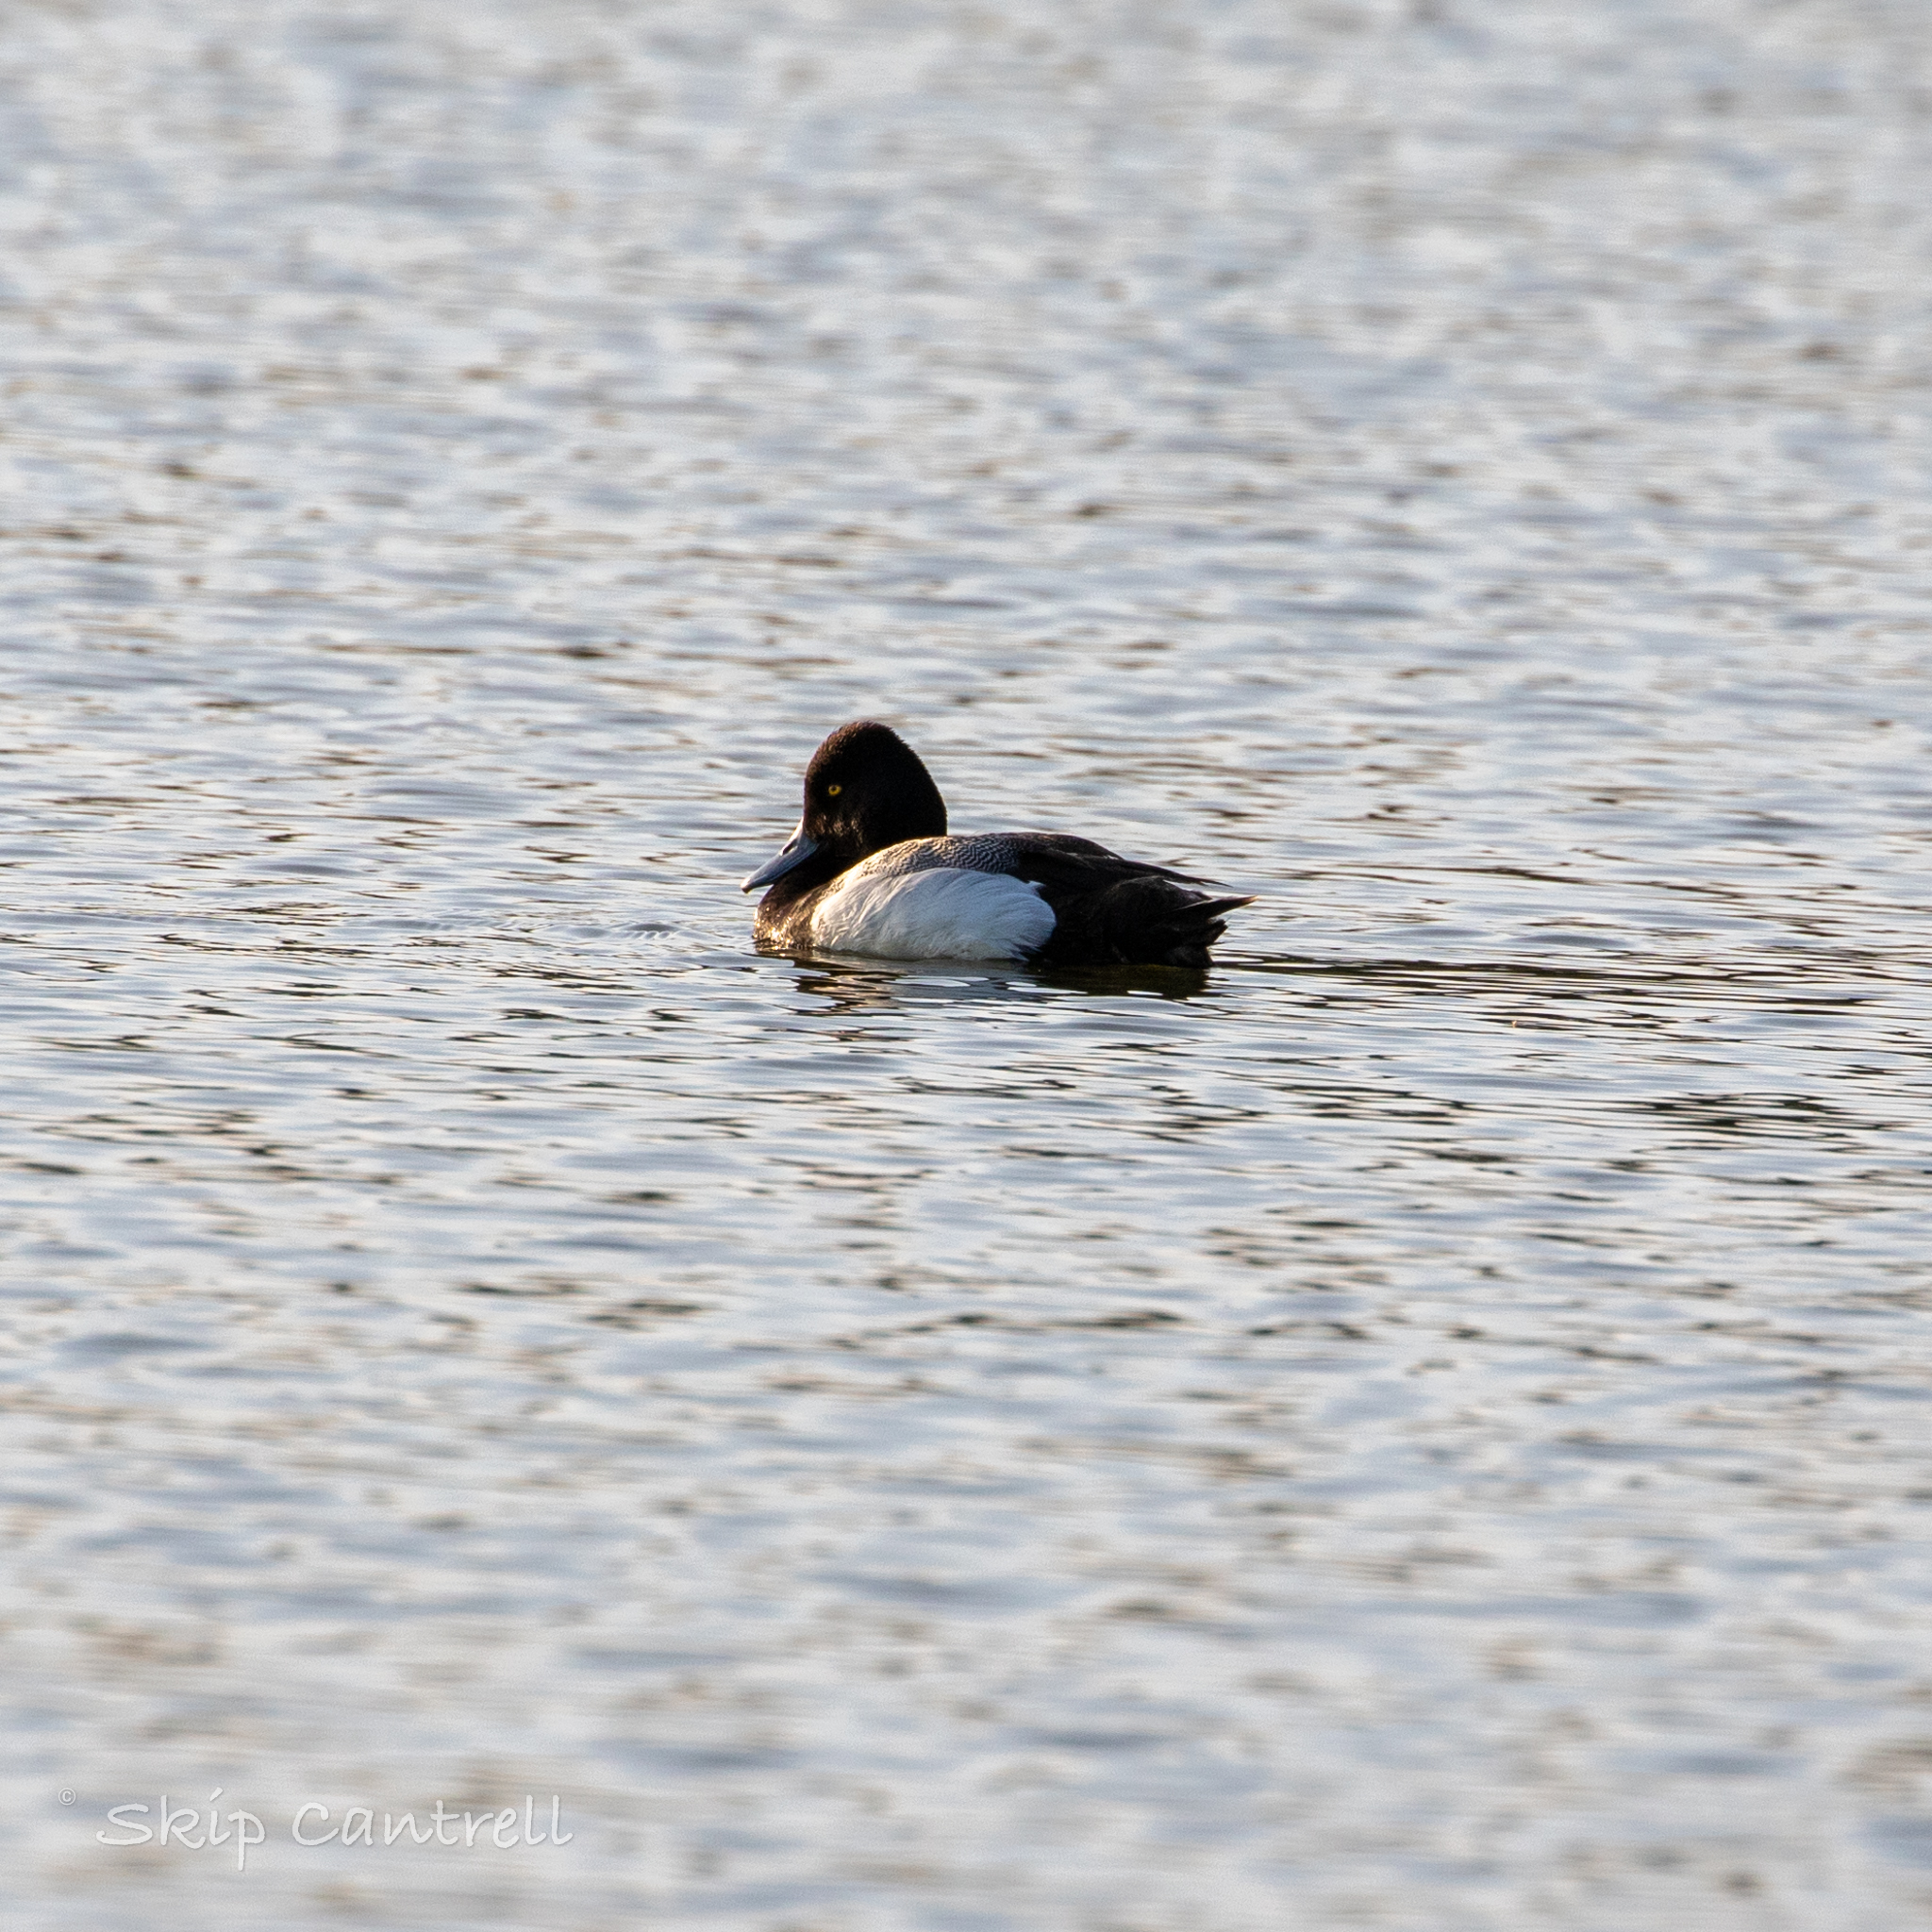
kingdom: Animalia
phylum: Chordata
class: Aves
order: Anseriformes
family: Anatidae
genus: Aythya
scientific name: Aythya affinis
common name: Lesser scaup
